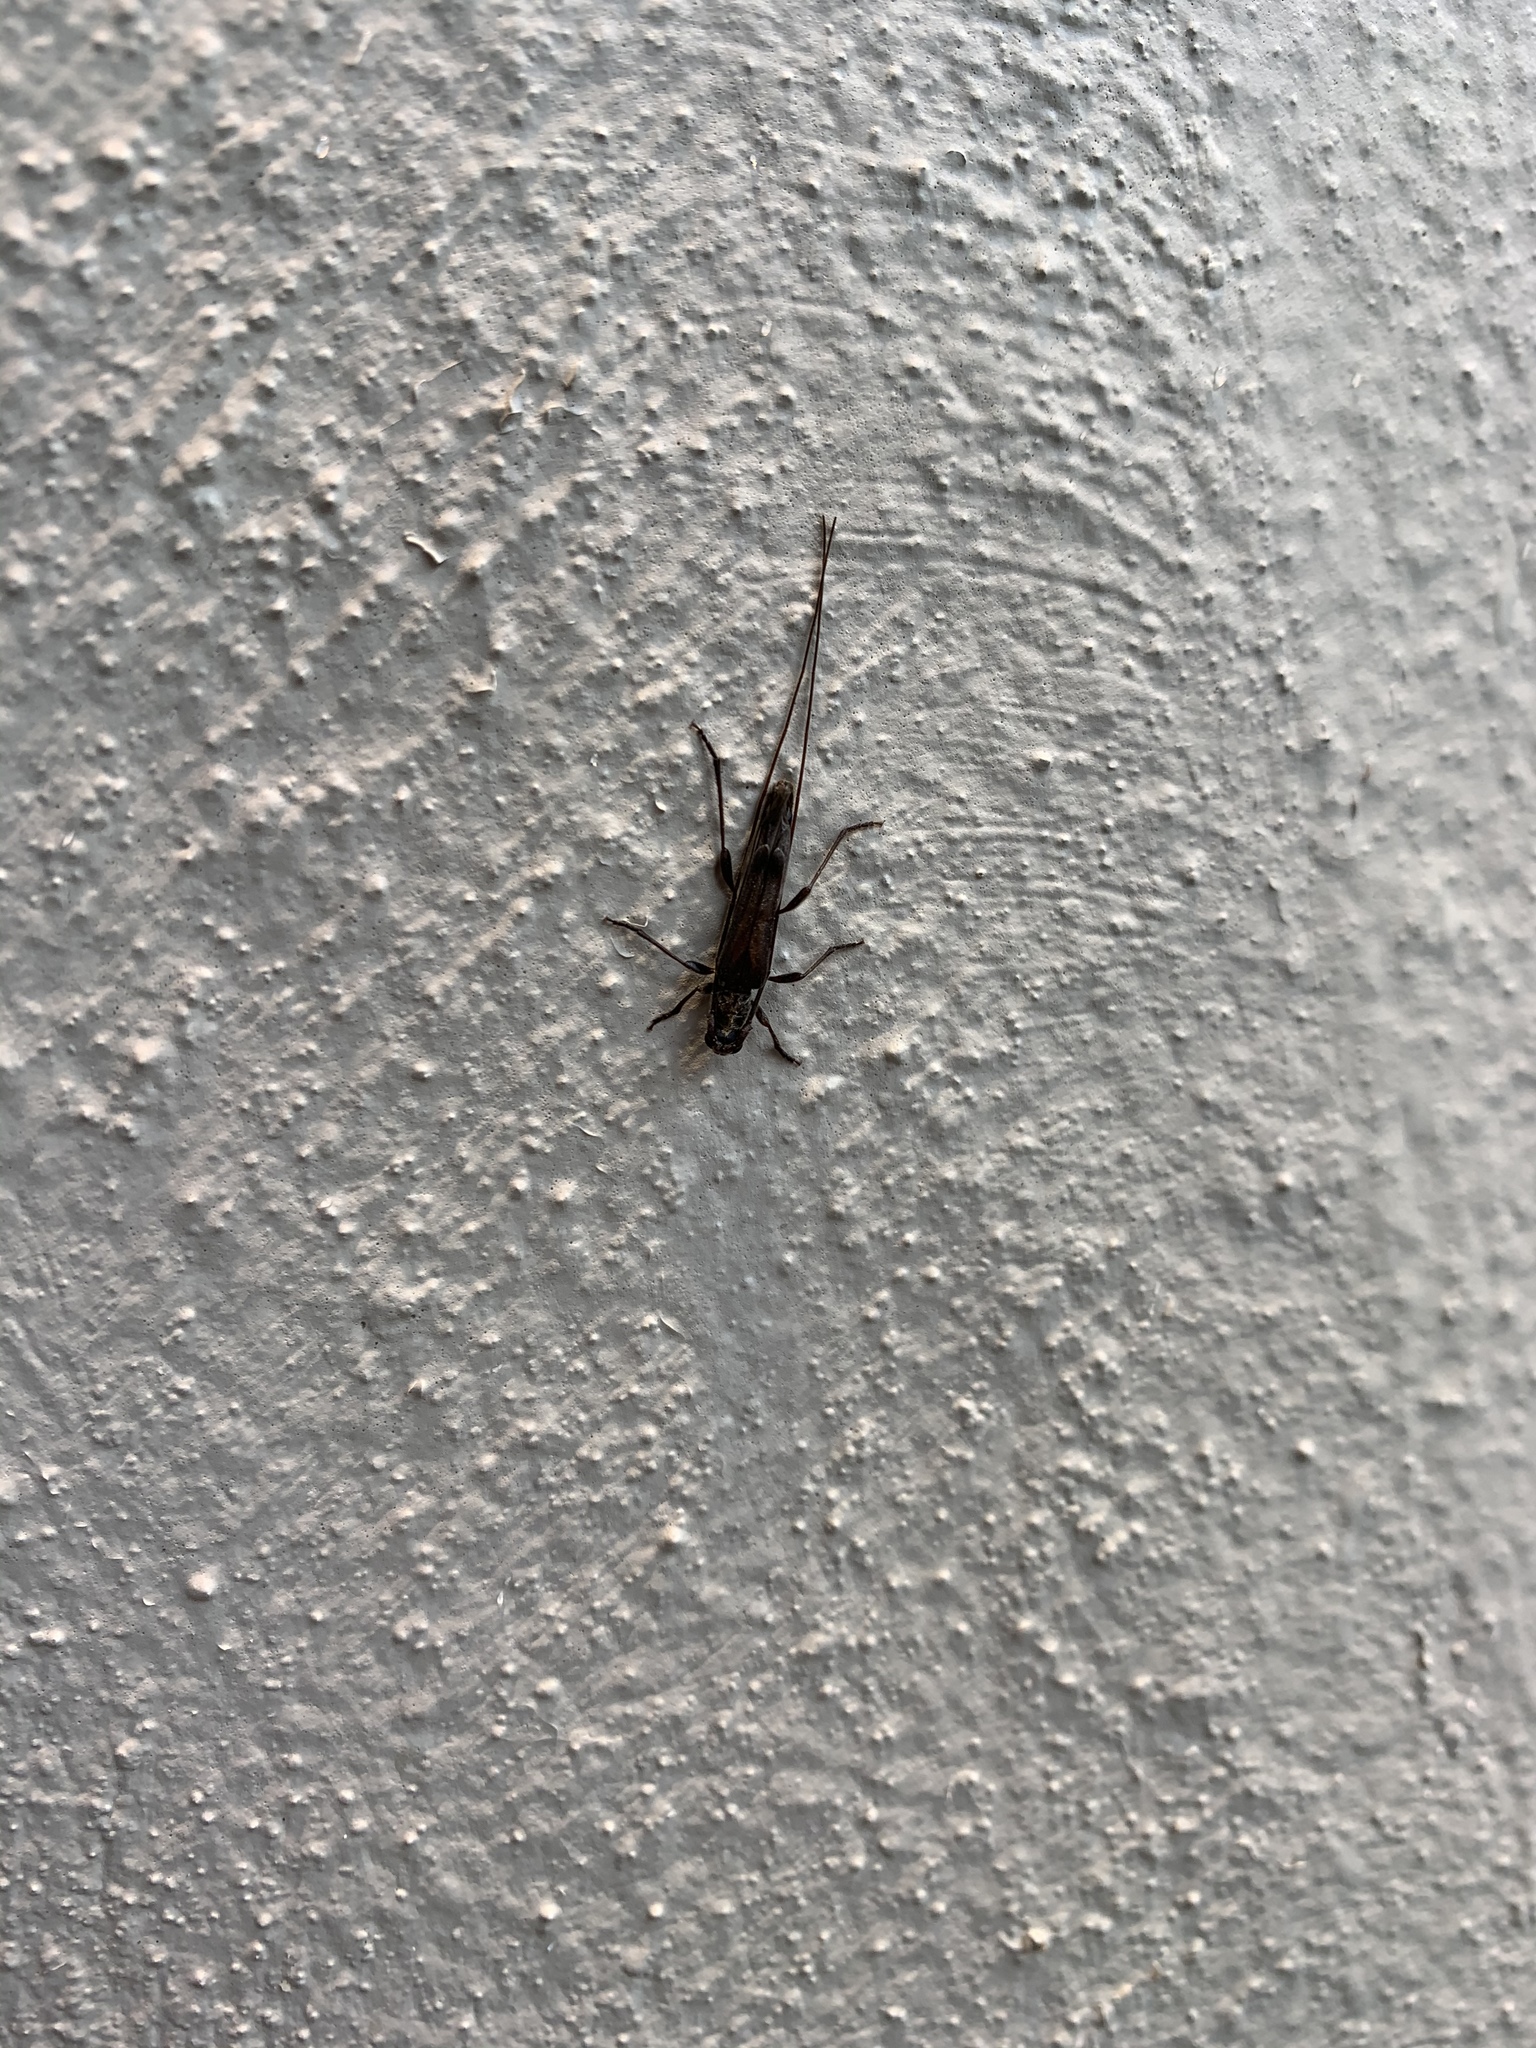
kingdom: Animalia
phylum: Arthropoda
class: Insecta
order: Coleoptera
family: Cerambycidae
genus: Styloxus
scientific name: Styloxus fulleri
